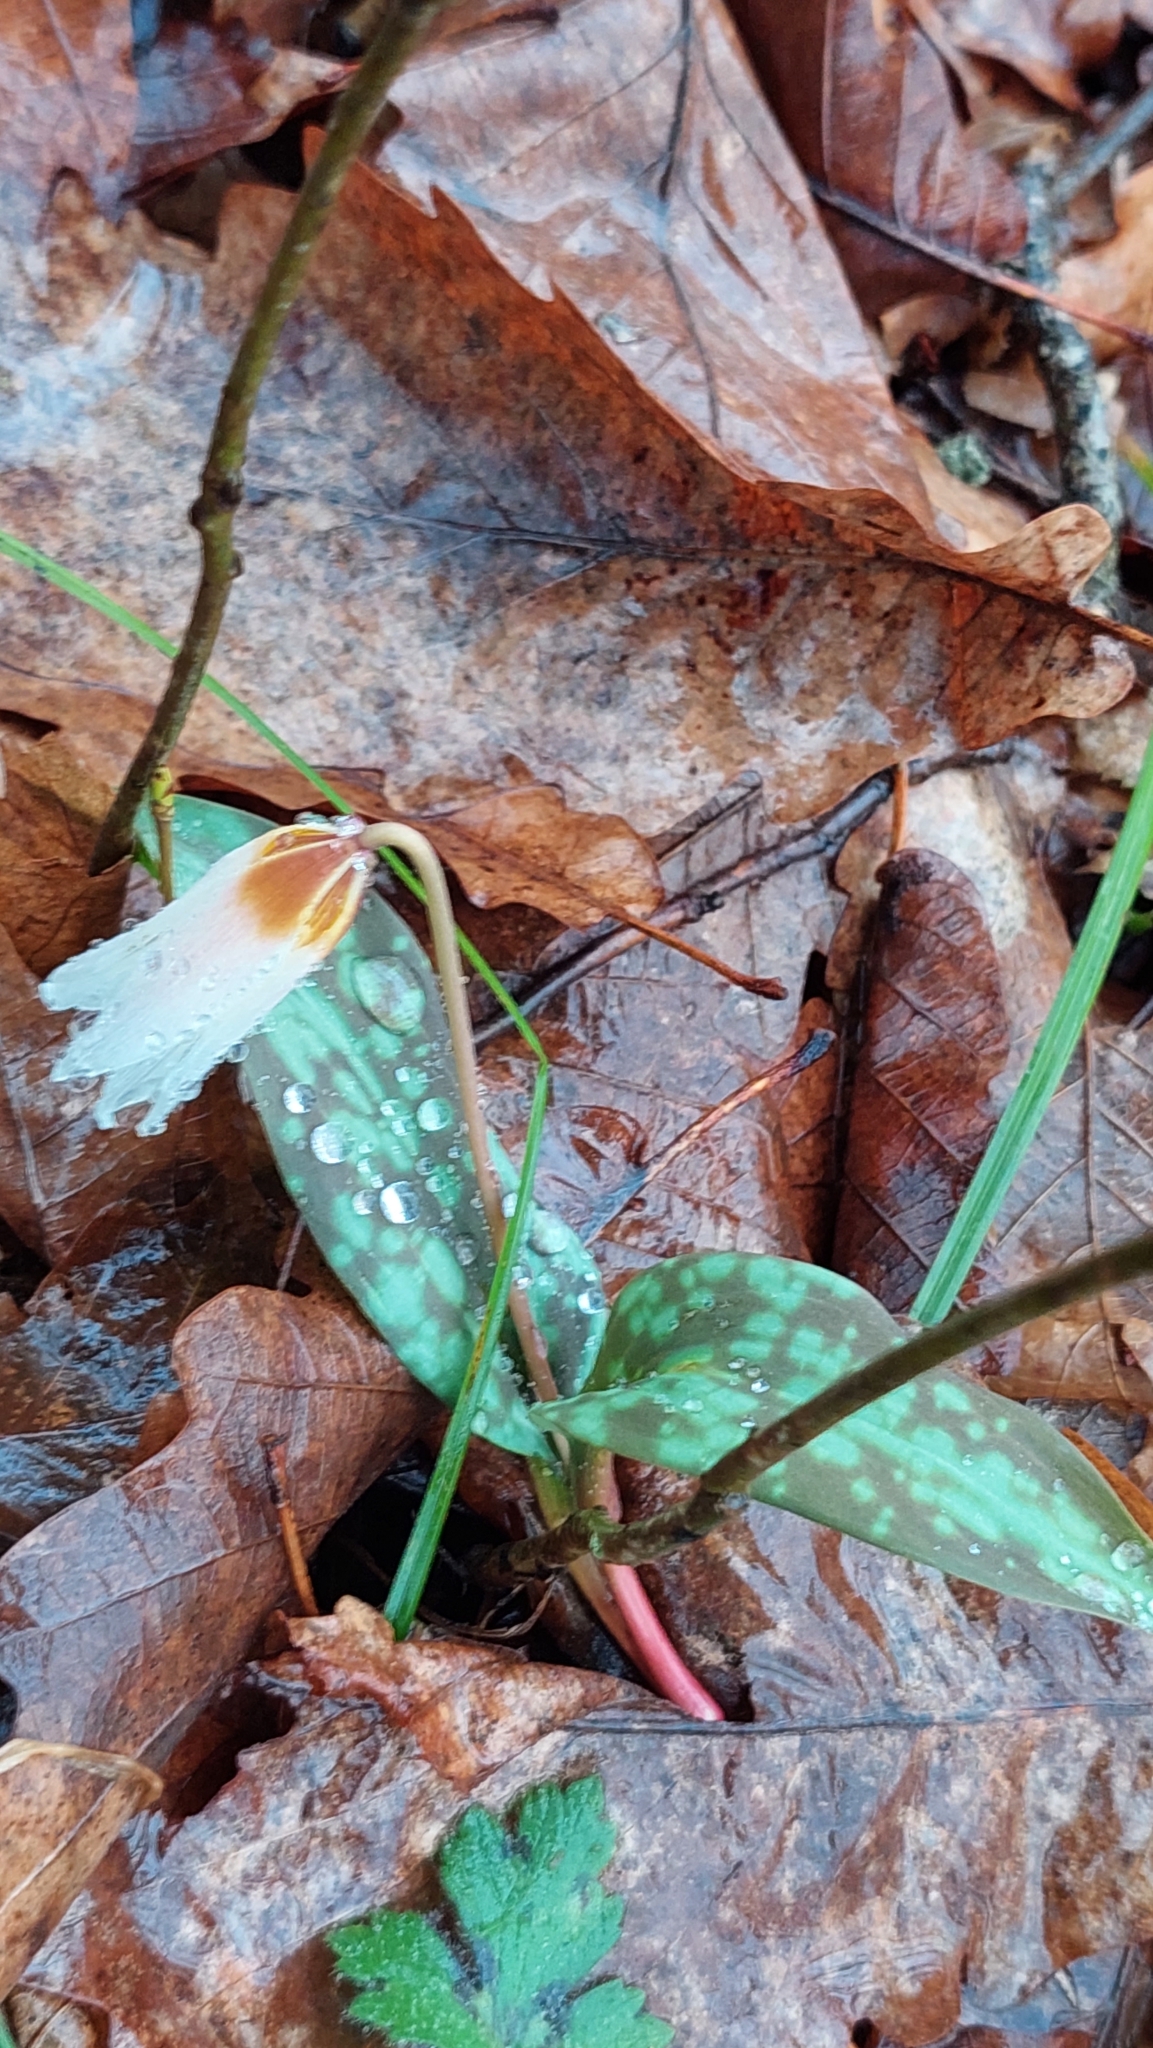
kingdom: Plantae
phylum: Tracheophyta
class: Liliopsida
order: Liliales
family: Liliaceae
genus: Erythronium
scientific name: Erythronium caucasicum
